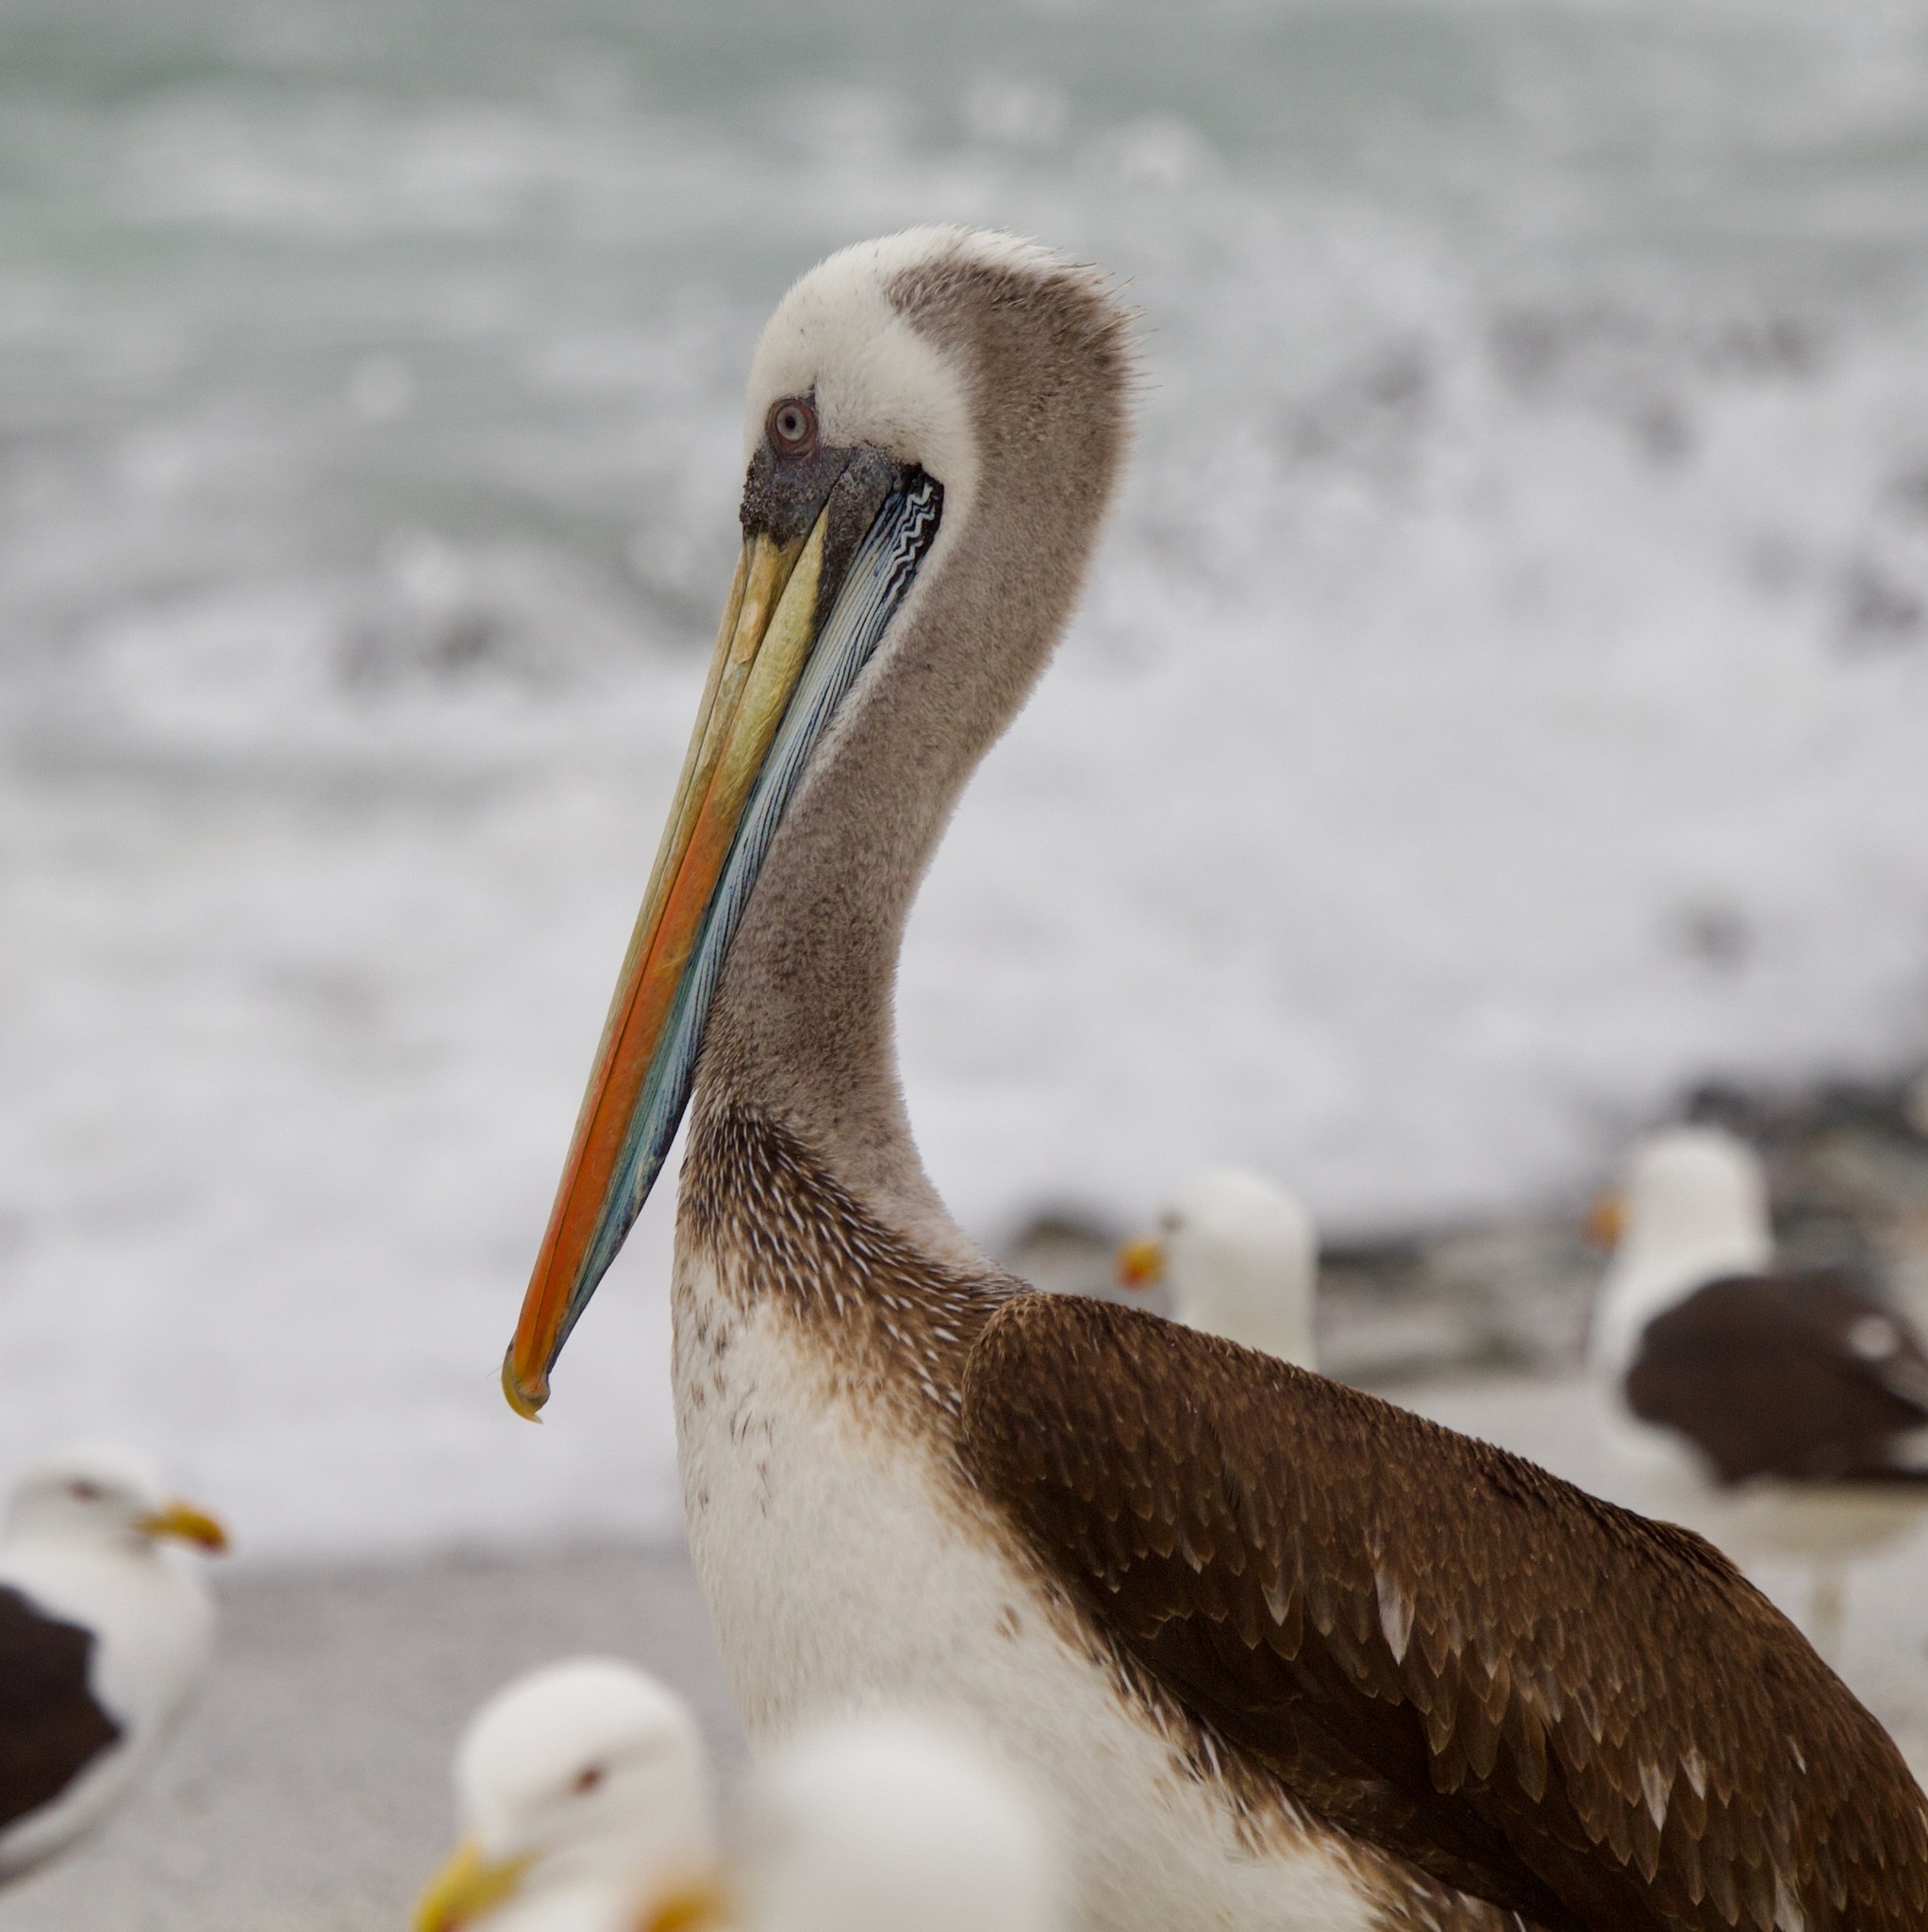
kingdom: Animalia
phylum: Chordata
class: Aves
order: Pelecaniformes
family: Pelecanidae
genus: Pelecanus
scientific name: Pelecanus thagus
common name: Peruvian pelican
